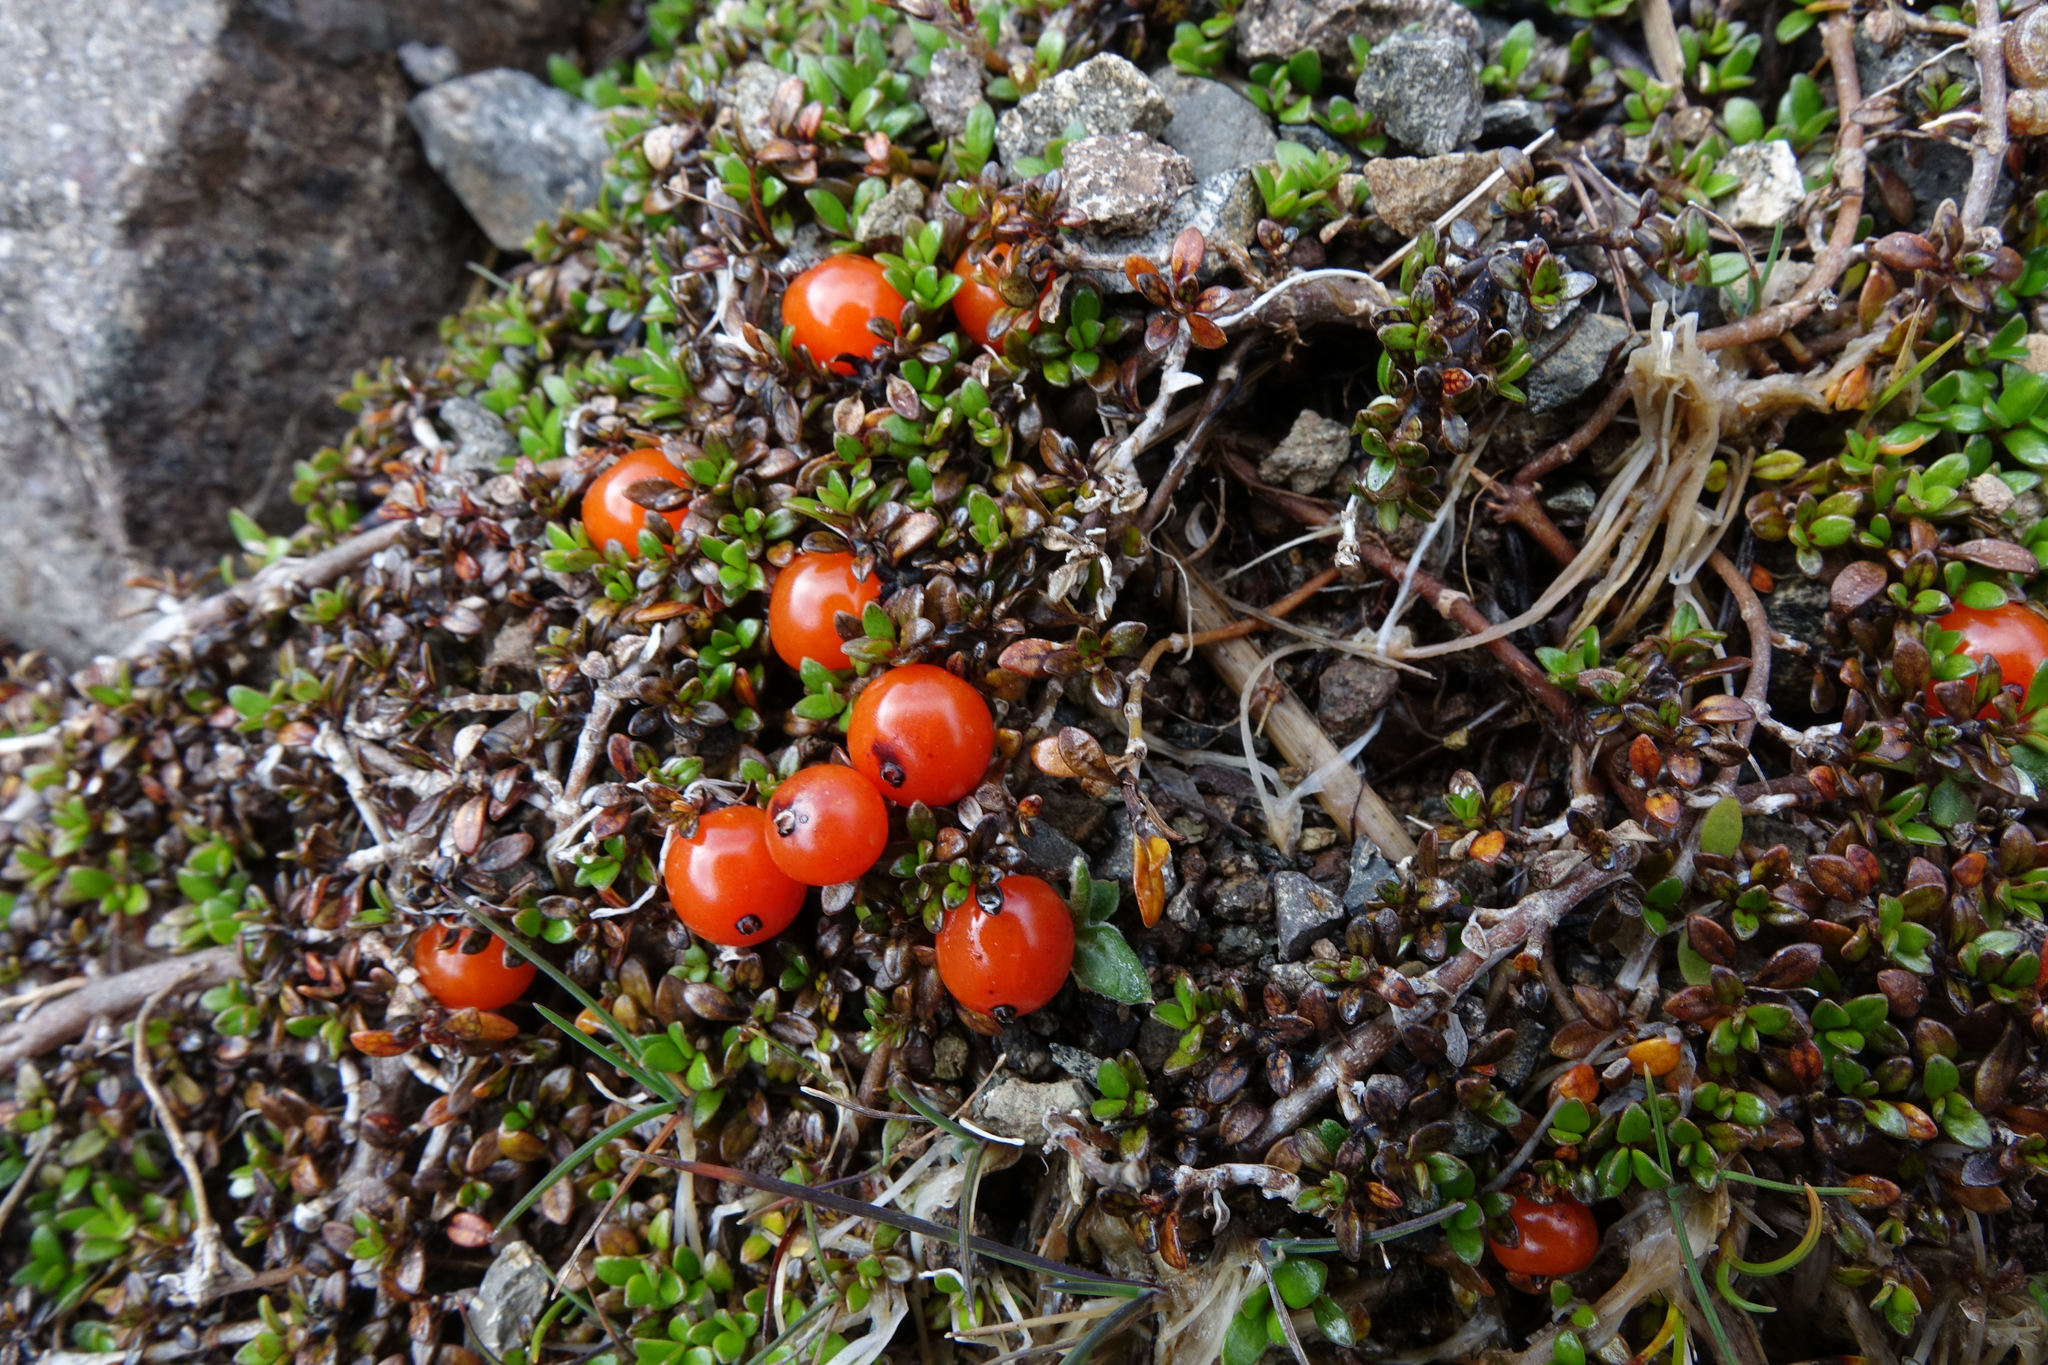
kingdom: Plantae
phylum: Tracheophyta
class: Magnoliopsida
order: Gentianales
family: Rubiaceae
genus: Coprosma
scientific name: Coprosma perpusilla
